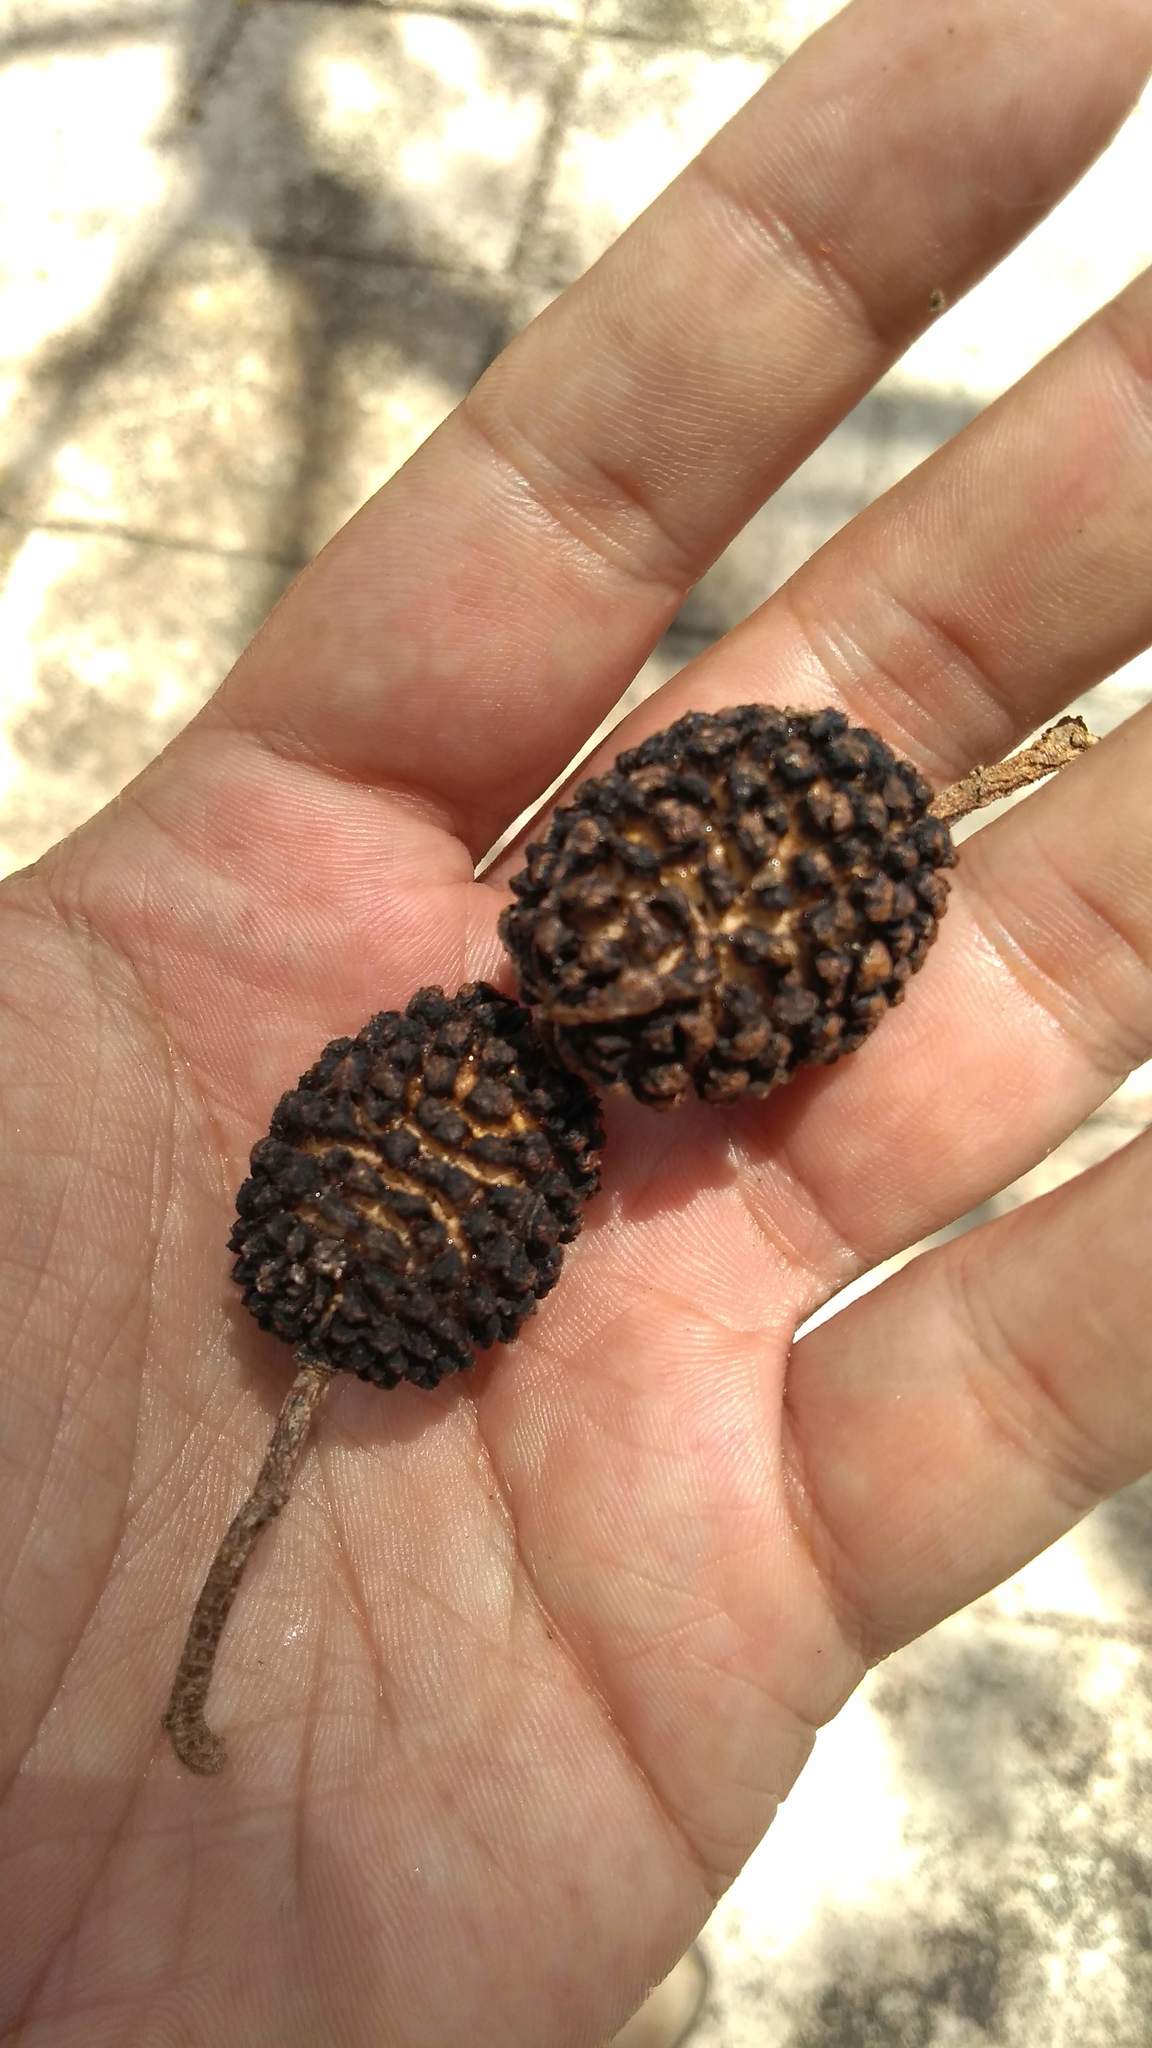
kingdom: Plantae
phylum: Tracheophyta
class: Magnoliopsida
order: Malvales
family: Malvaceae
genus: Guazuma
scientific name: Guazuma ulmifolia
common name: Bastard-cedar
